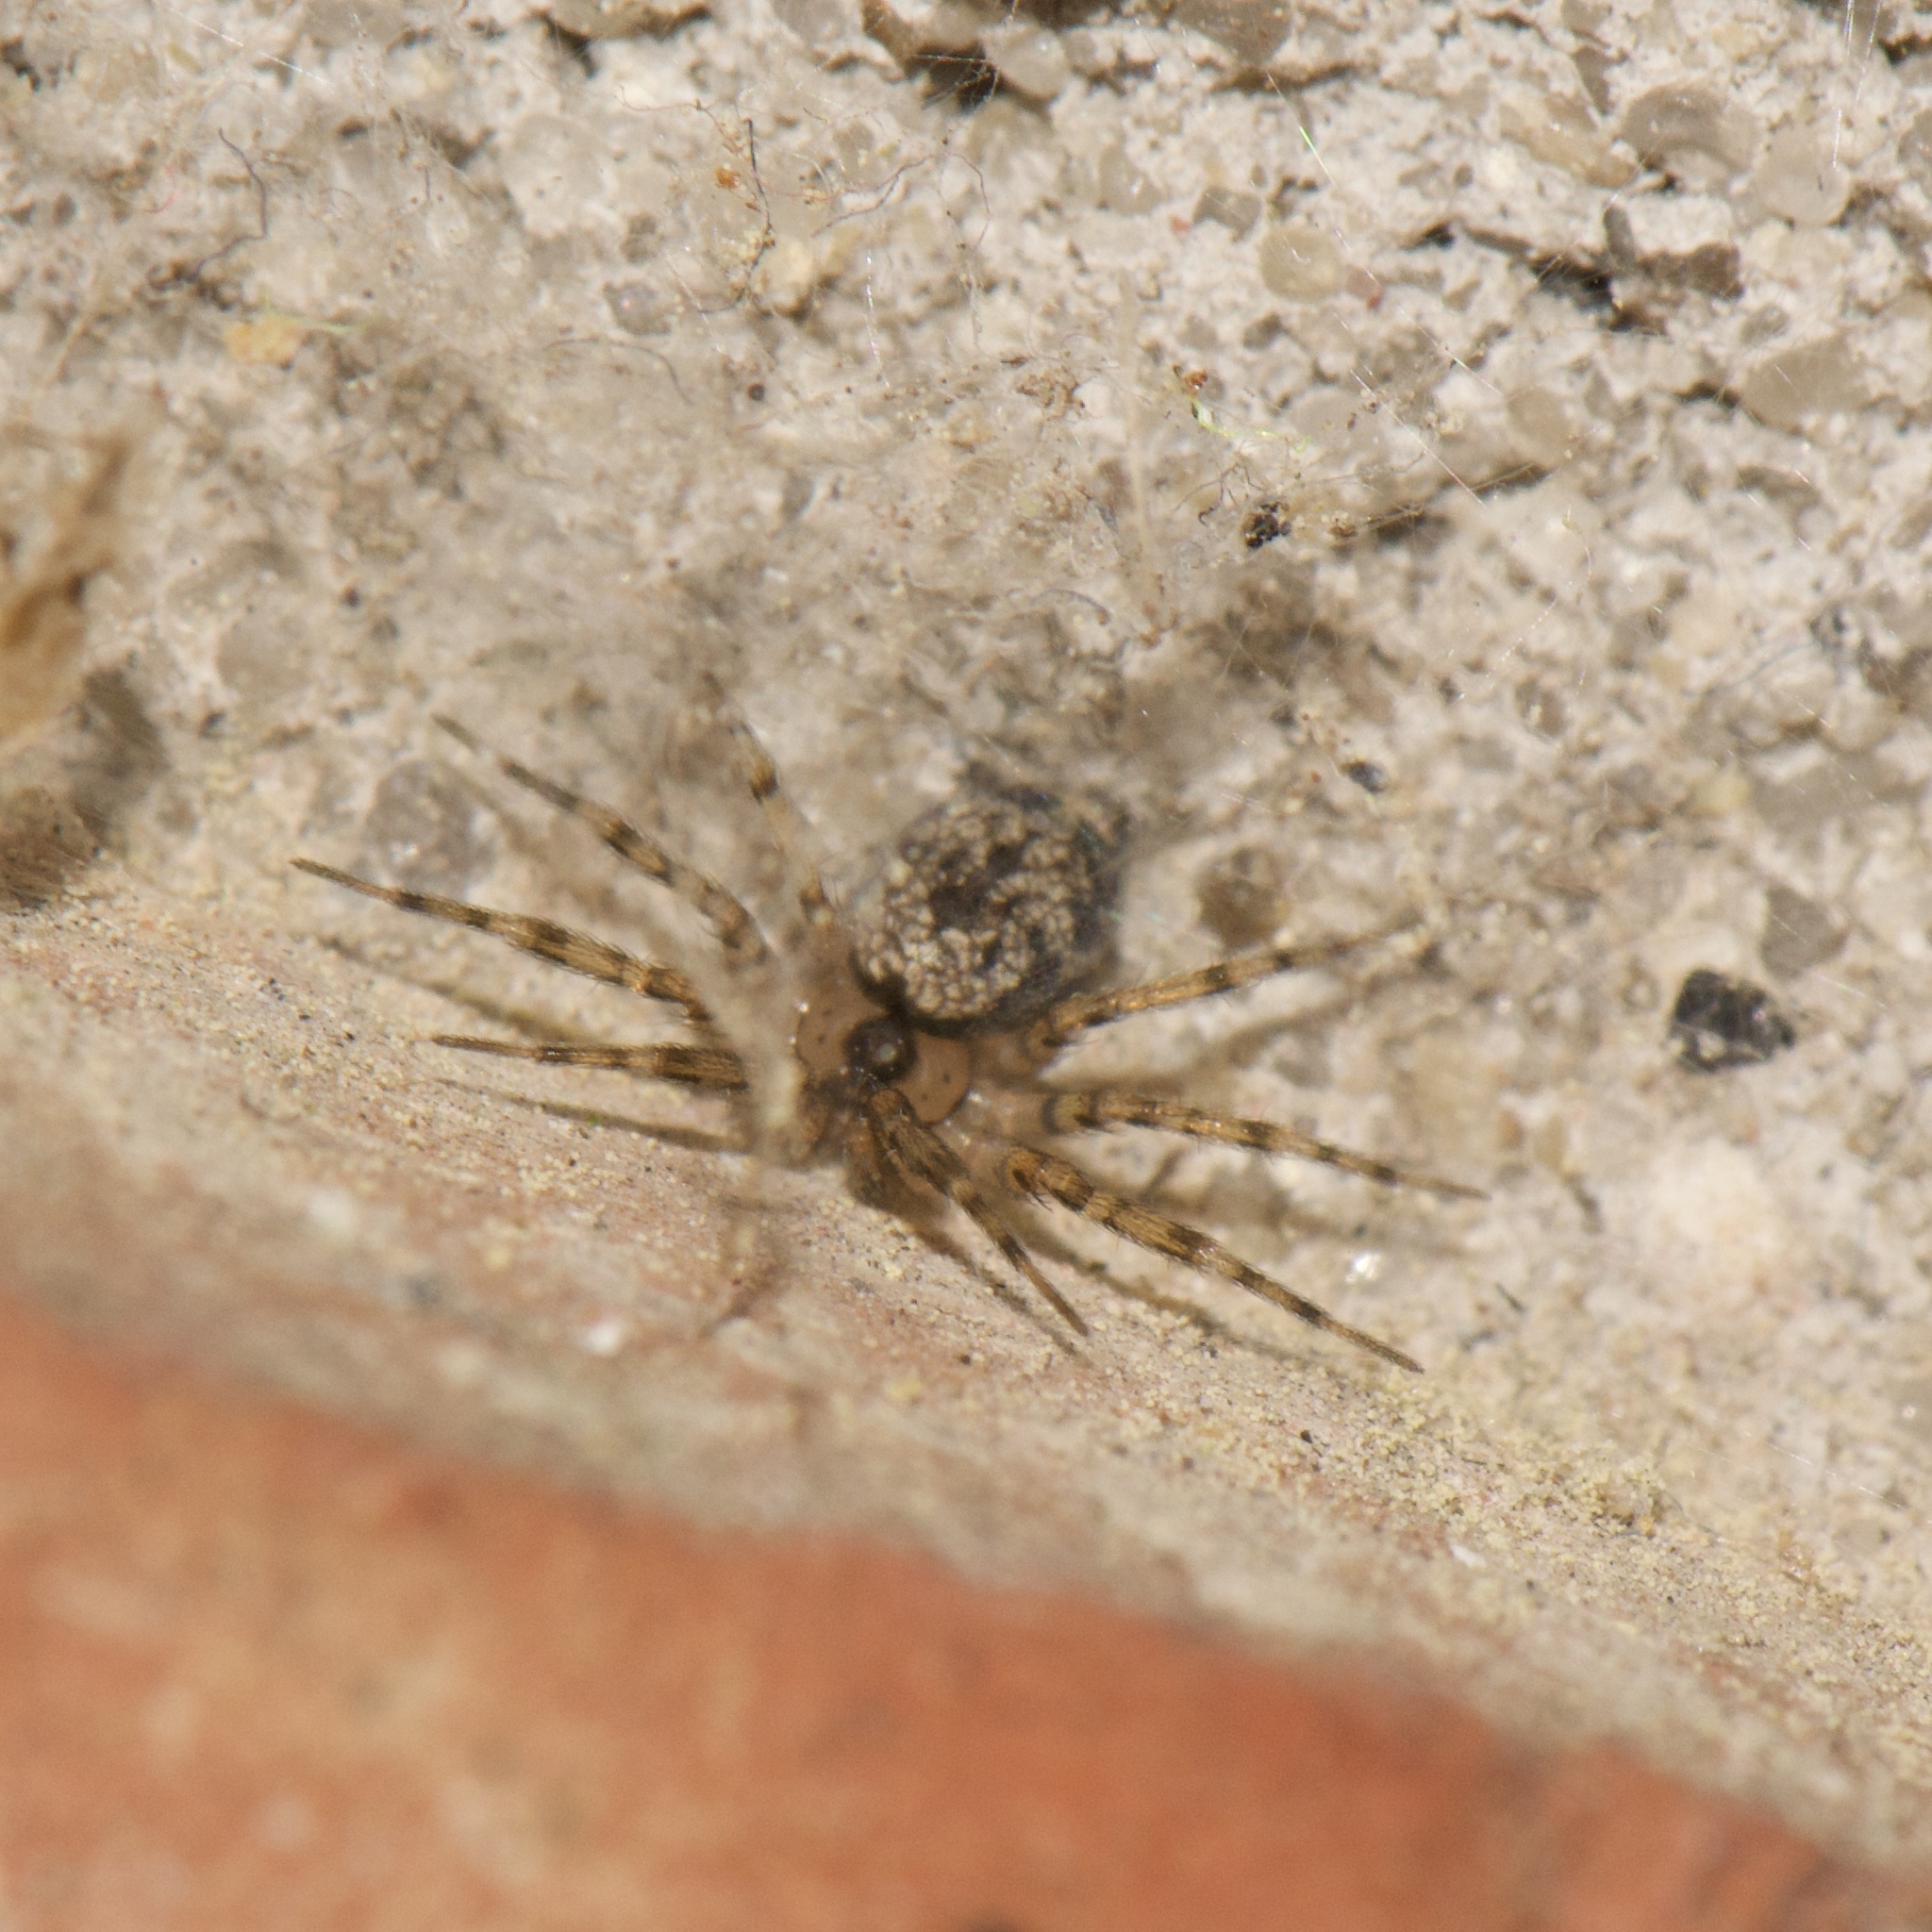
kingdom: Animalia
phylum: Arthropoda
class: Arachnida
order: Araneae
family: Oecobiidae
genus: Oecobius
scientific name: Oecobius navus
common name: Flatmesh weaver
